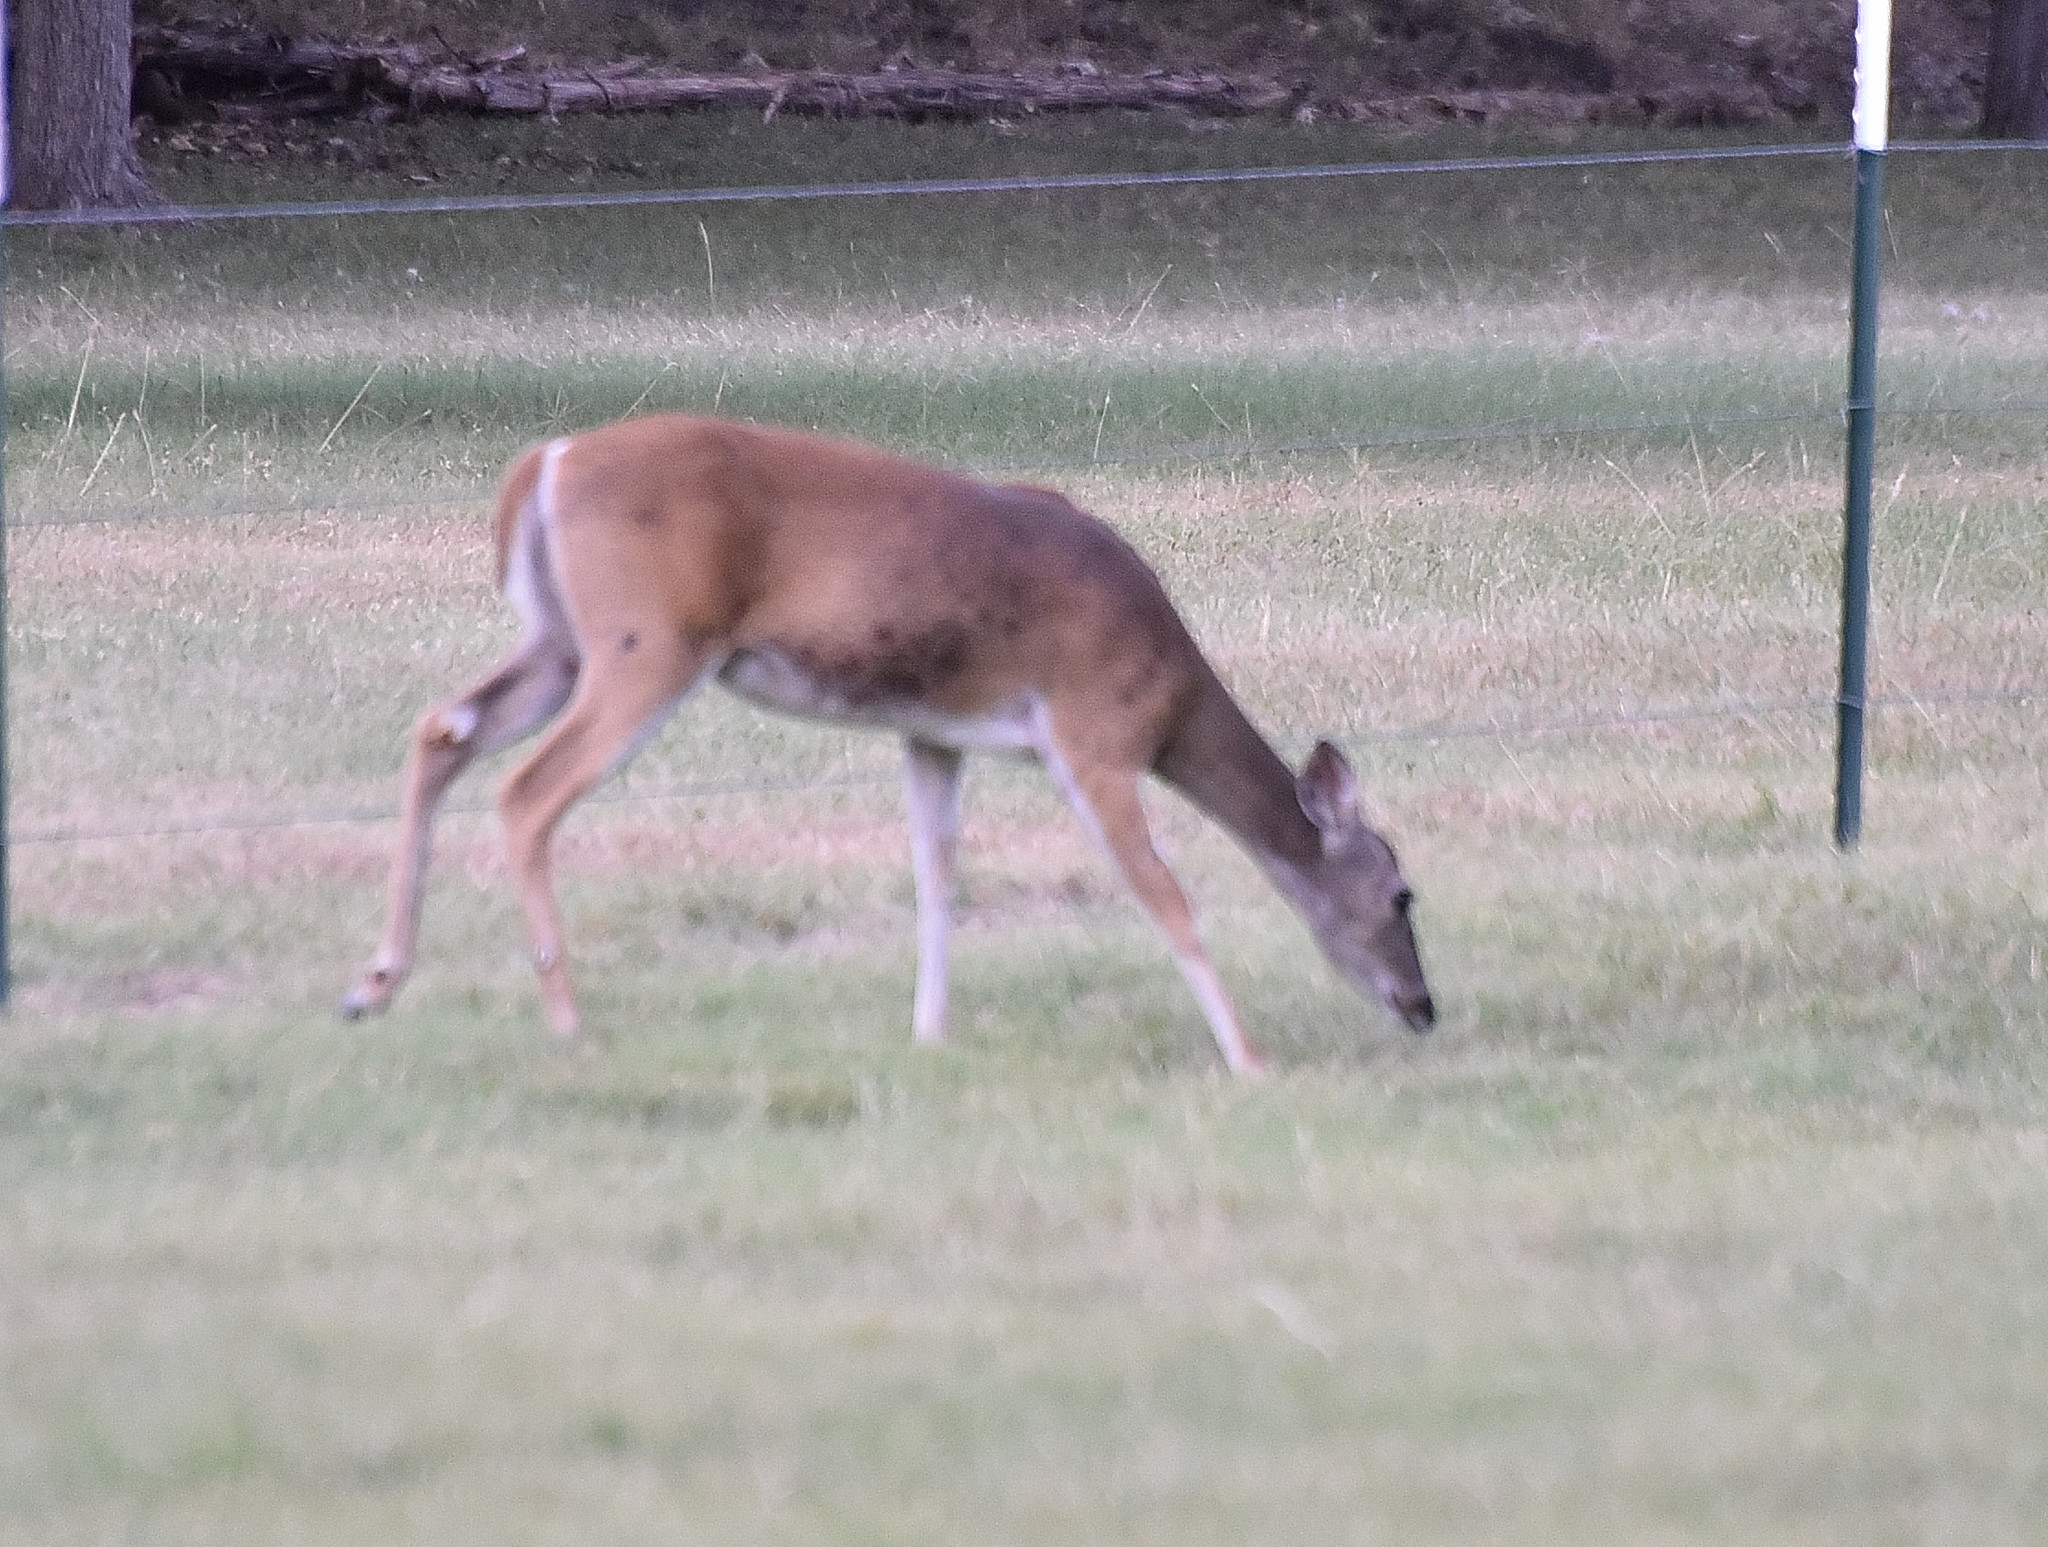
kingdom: Animalia
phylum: Chordata
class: Mammalia
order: Artiodactyla
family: Cervidae
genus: Odocoileus
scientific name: Odocoileus virginianus
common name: White-tailed deer
